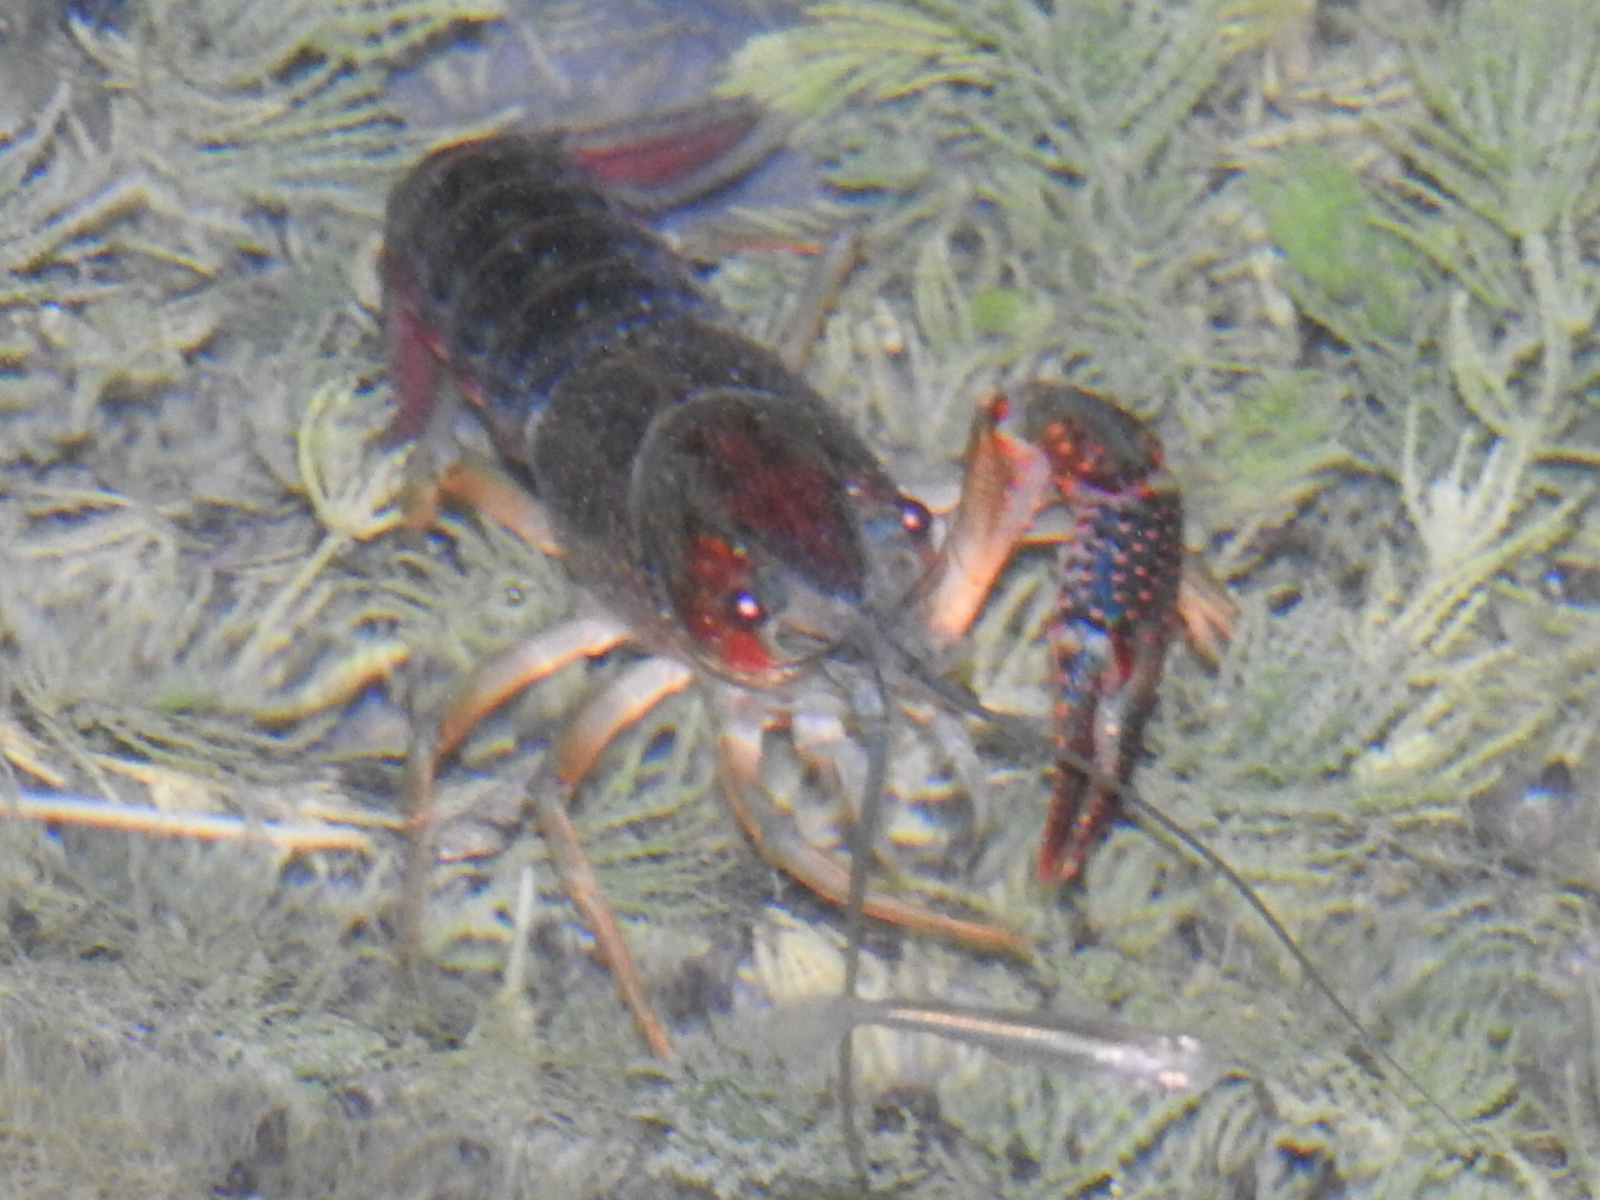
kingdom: Animalia
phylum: Arthropoda
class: Malacostraca
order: Decapoda
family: Cambaridae
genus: Procambarus
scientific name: Procambarus clarkii
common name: Red swamp crayfish
